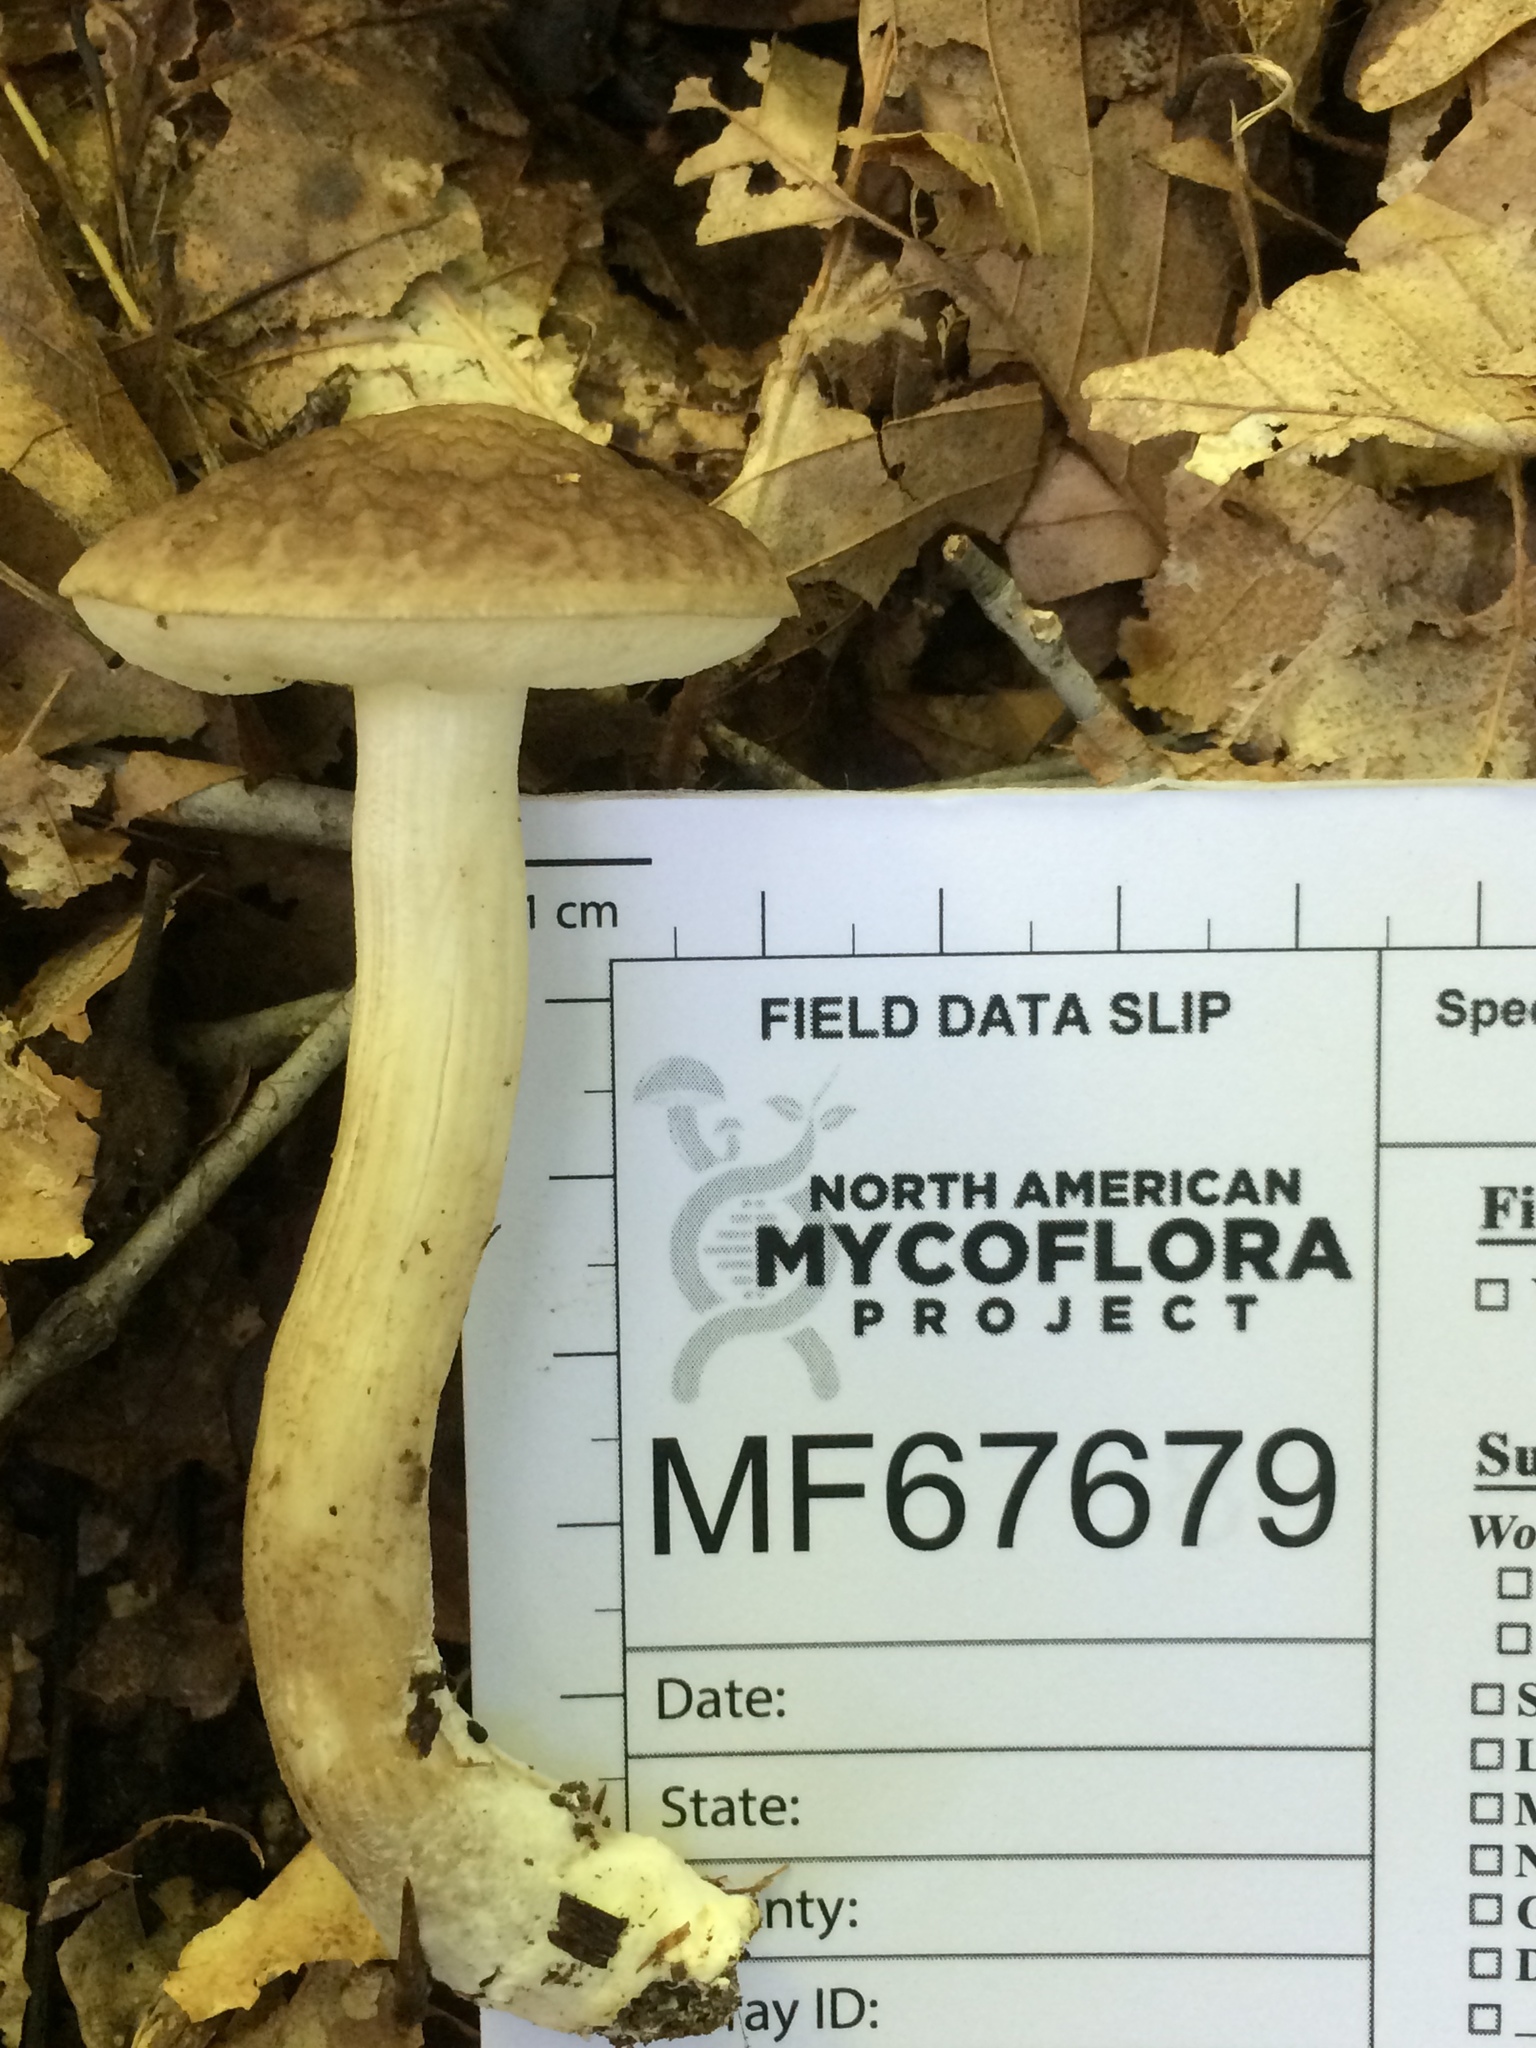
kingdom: Fungi
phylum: Basidiomycota
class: Agaricomycetes
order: Boletales
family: Boletaceae
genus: Leccinellum
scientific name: Leccinellum albellum
